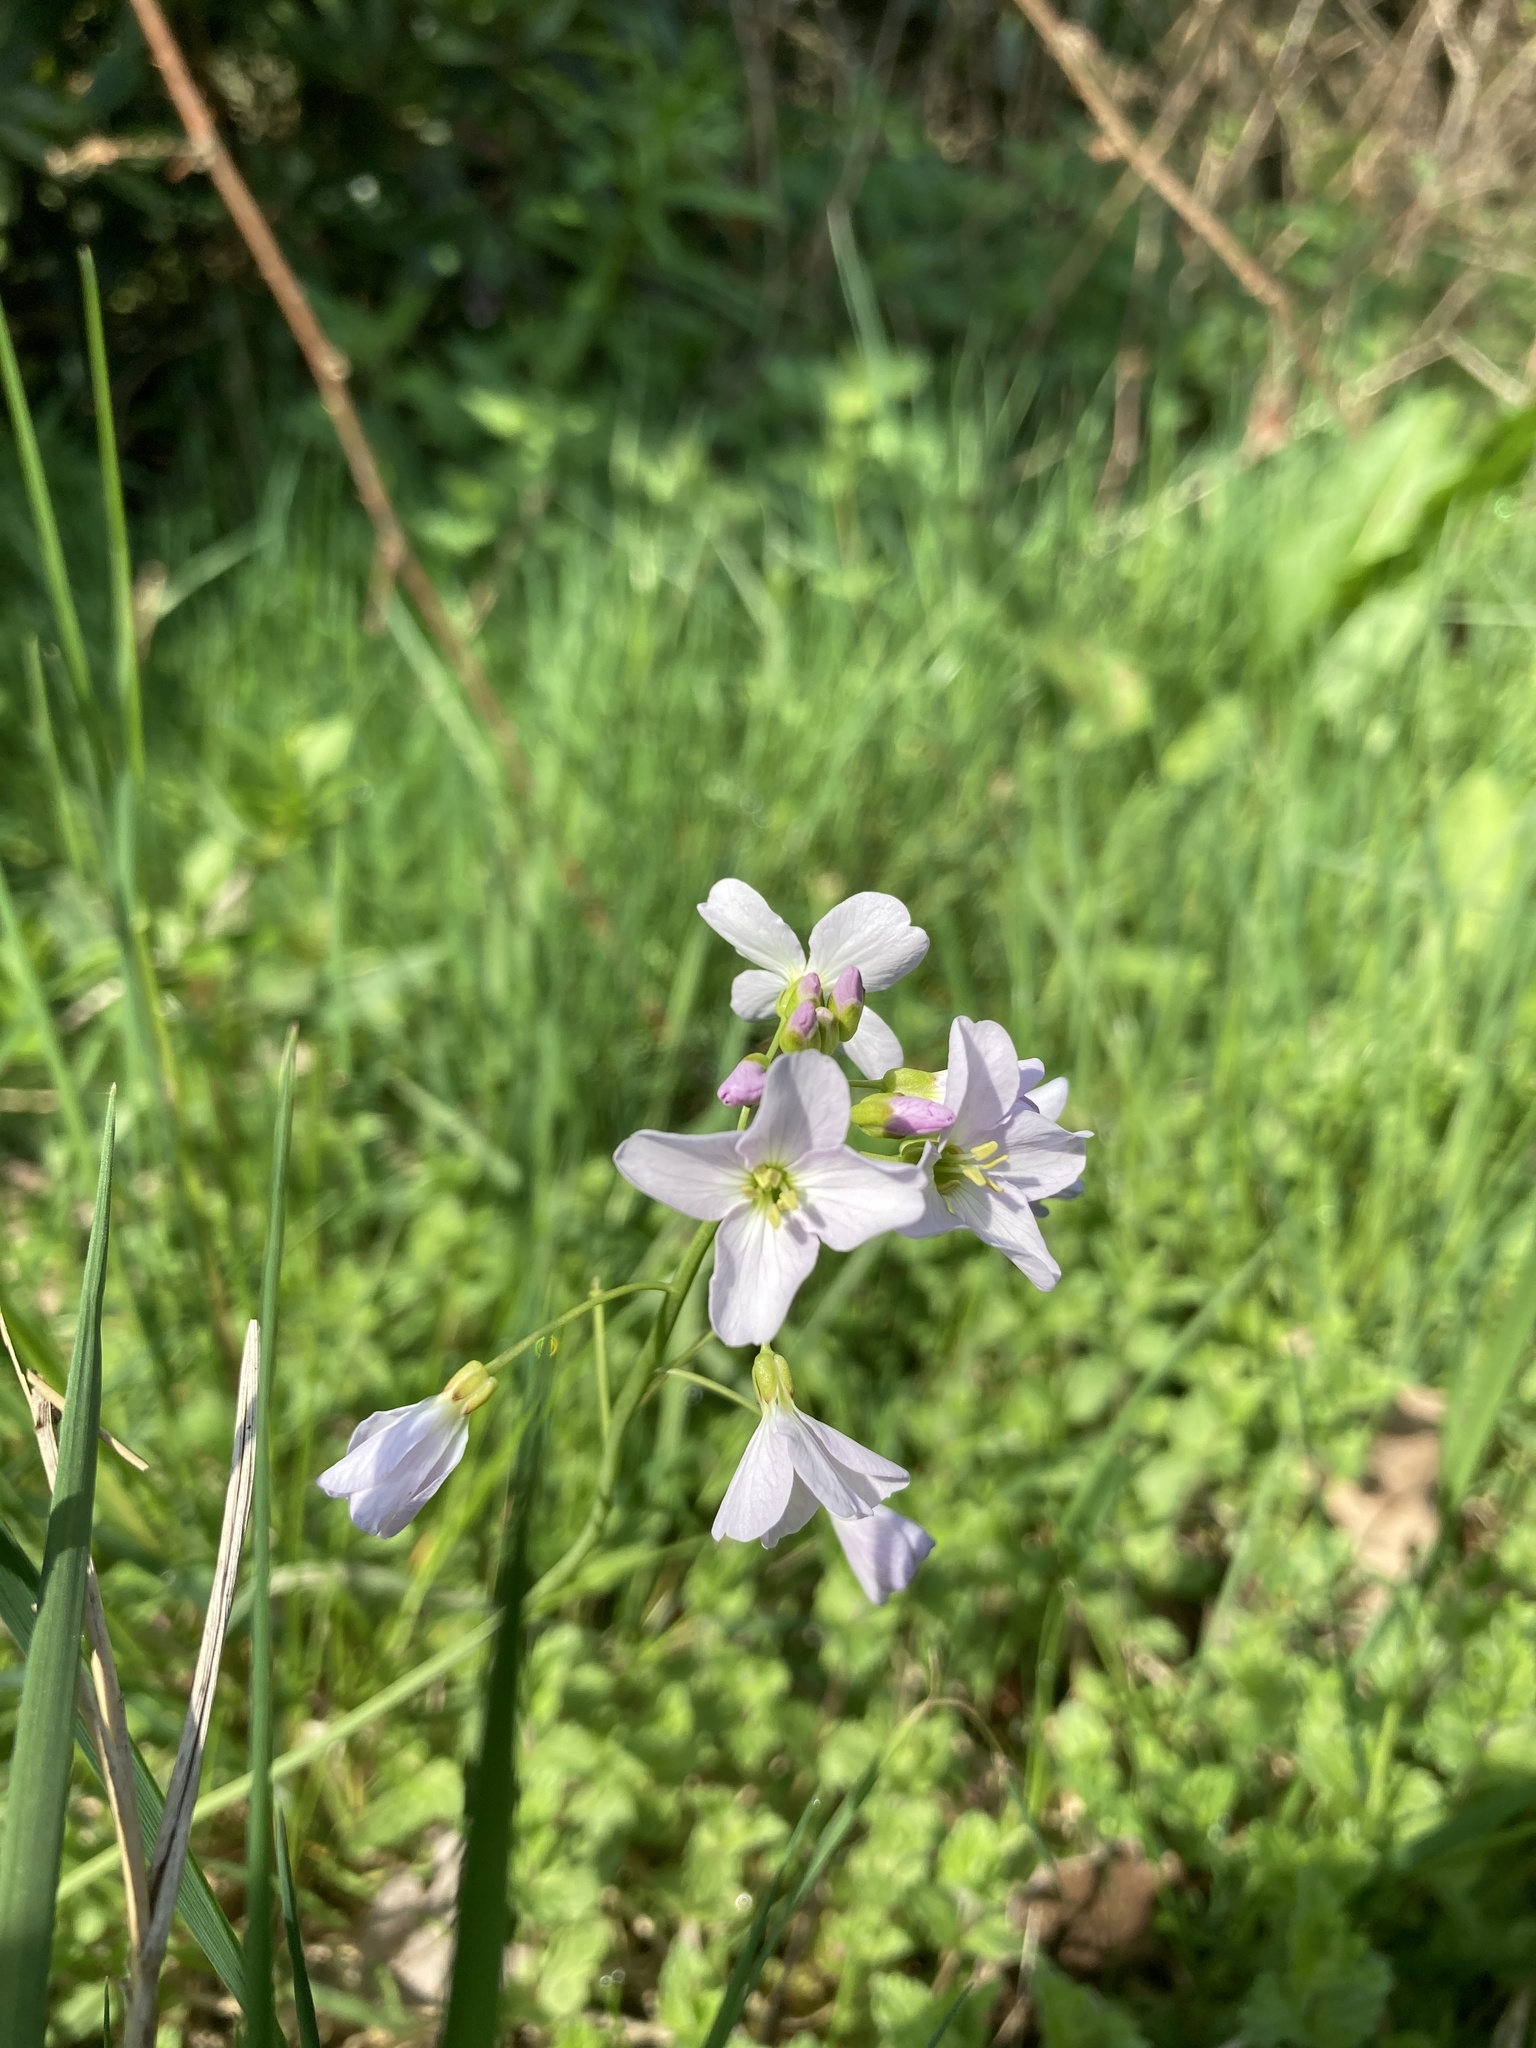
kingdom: Plantae
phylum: Tracheophyta
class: Magnoliopsida
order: Brassicales
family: Brassicaceae
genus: Cardamine
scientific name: Cardamine pratensis
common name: Cuckoo flower
